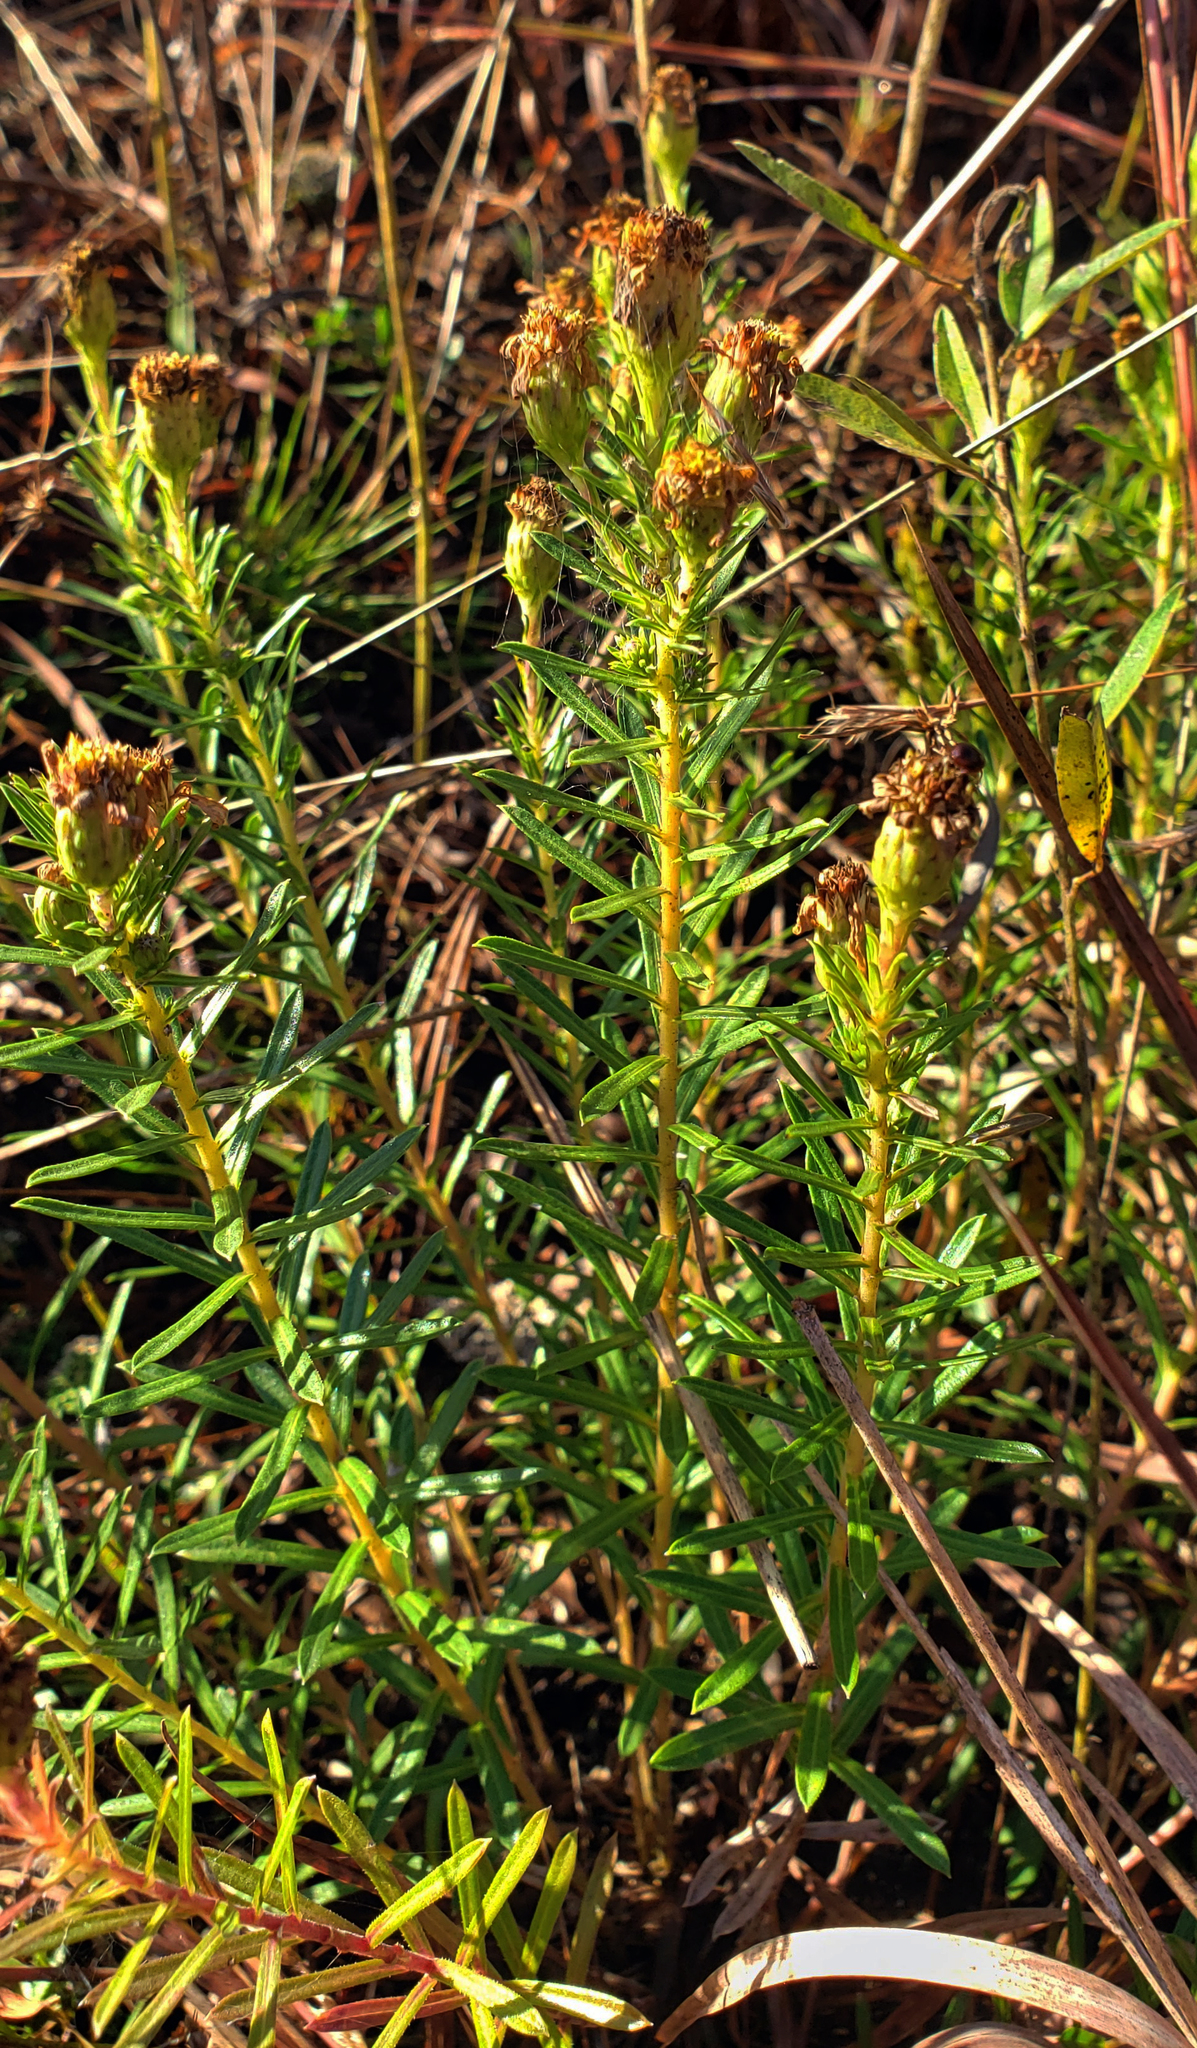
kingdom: Plantae
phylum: Tracheophyta
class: Magnoliopsida
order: Asterales
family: Asteraceae
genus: Ionactis
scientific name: Ionactis linariifolia
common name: Flax-leaf aster
